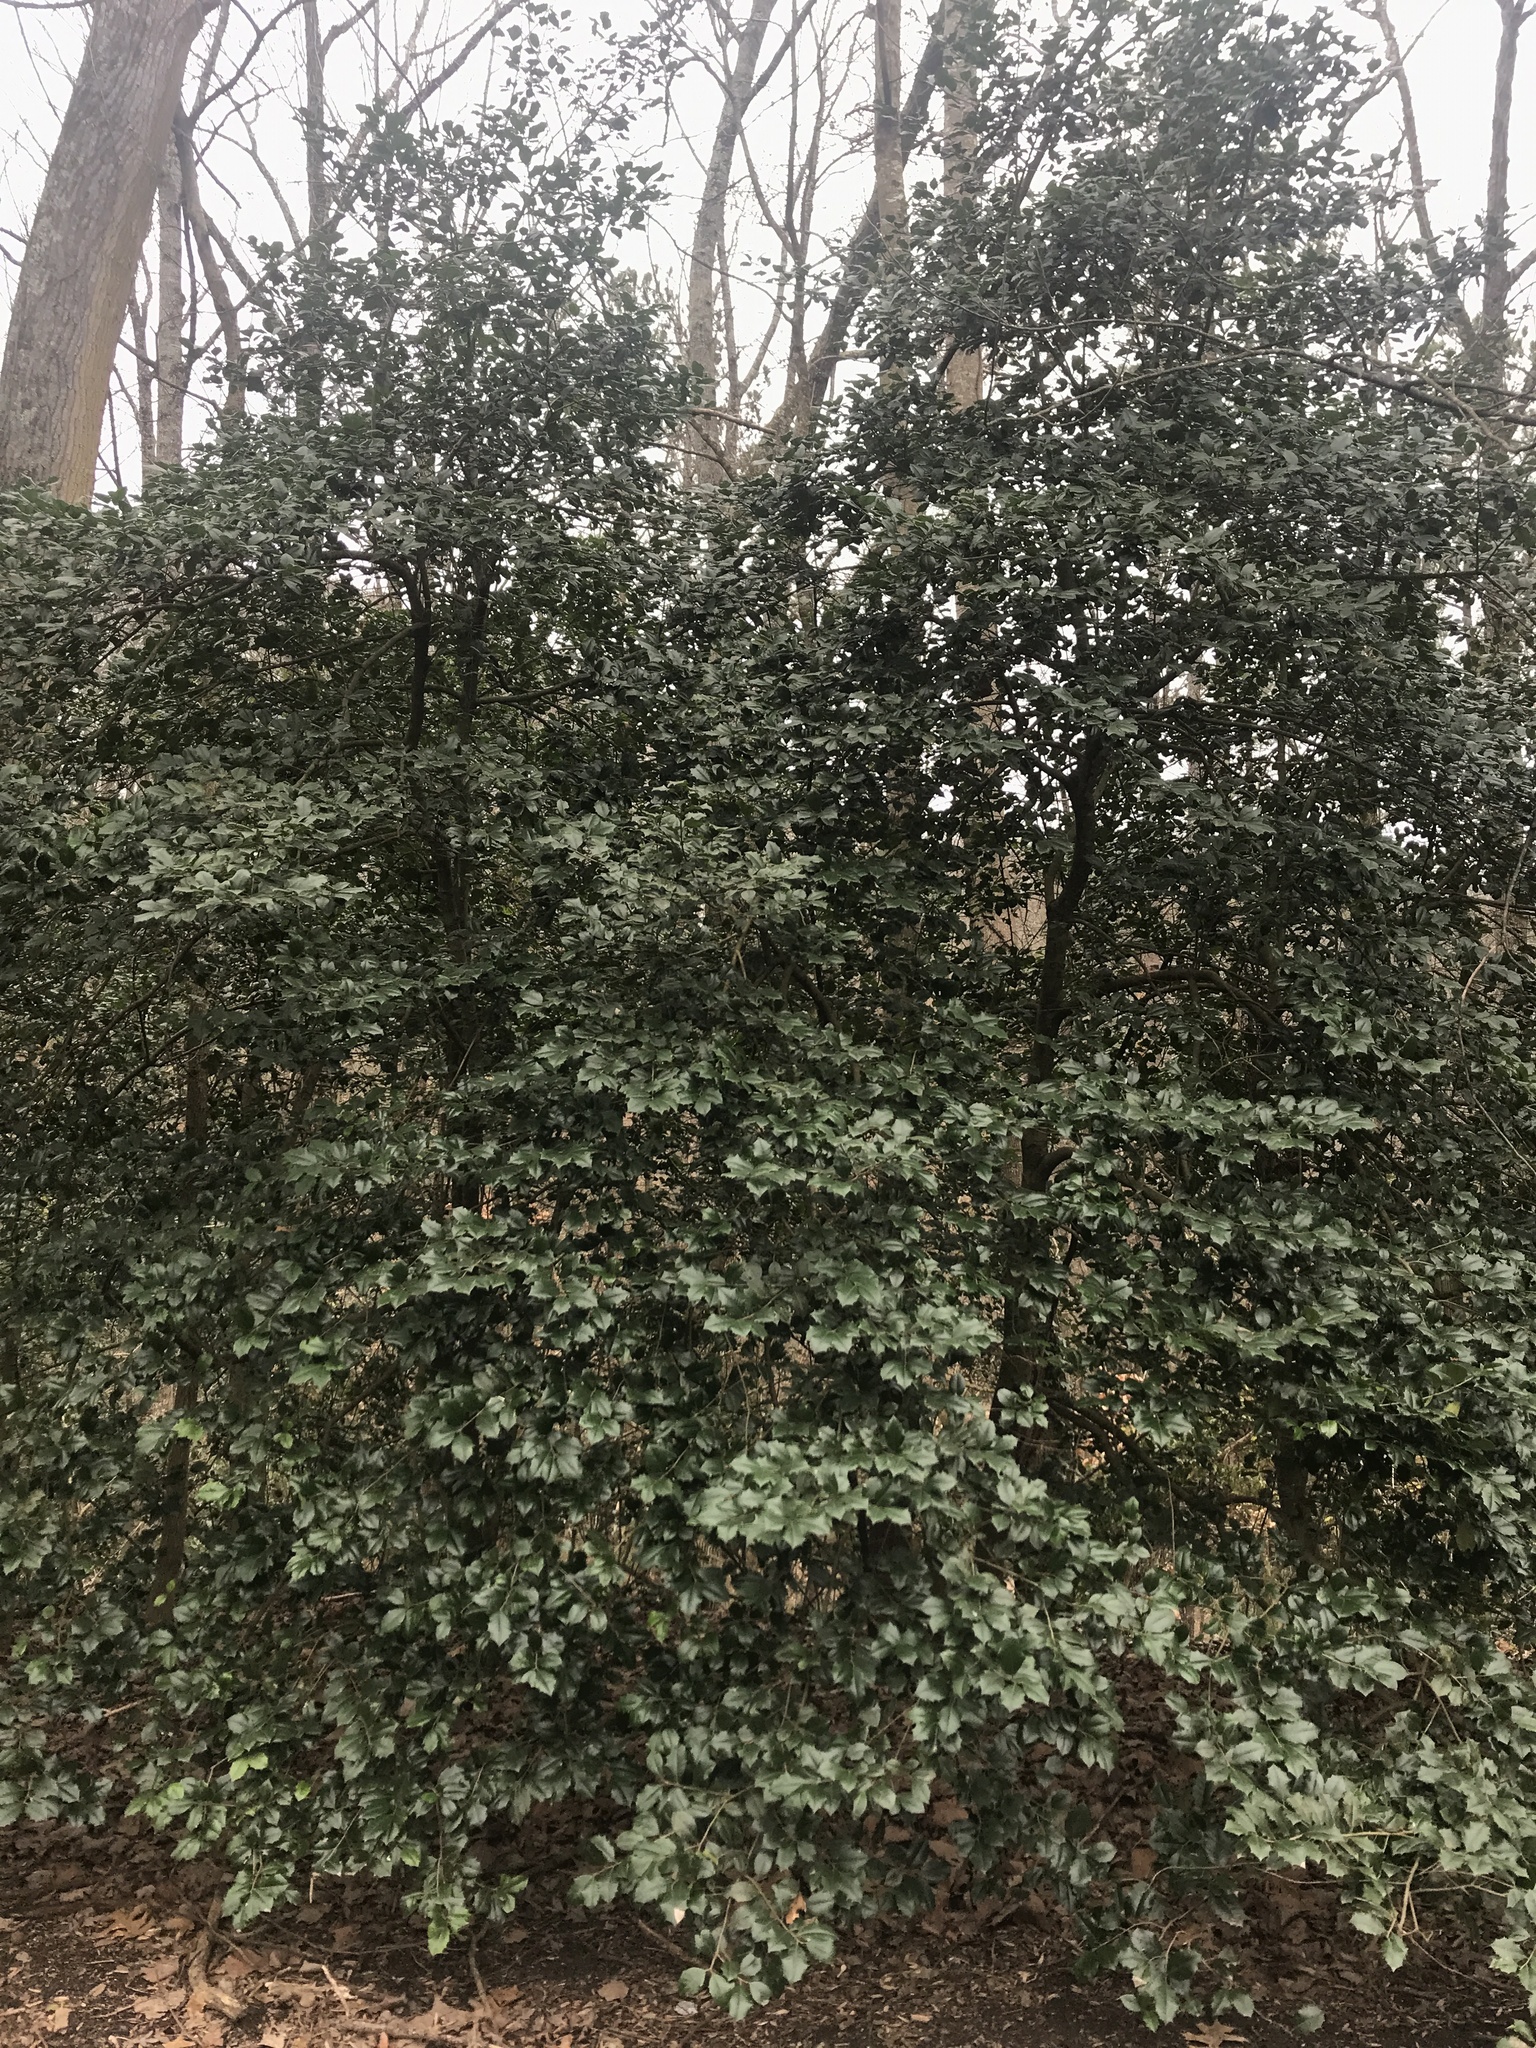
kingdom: Plantae
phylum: Tracheophyta
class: Magnoliopsida
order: Aquifoliales
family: Aquifoliaceae
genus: Ilex
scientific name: Ilex opaca
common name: American holly
